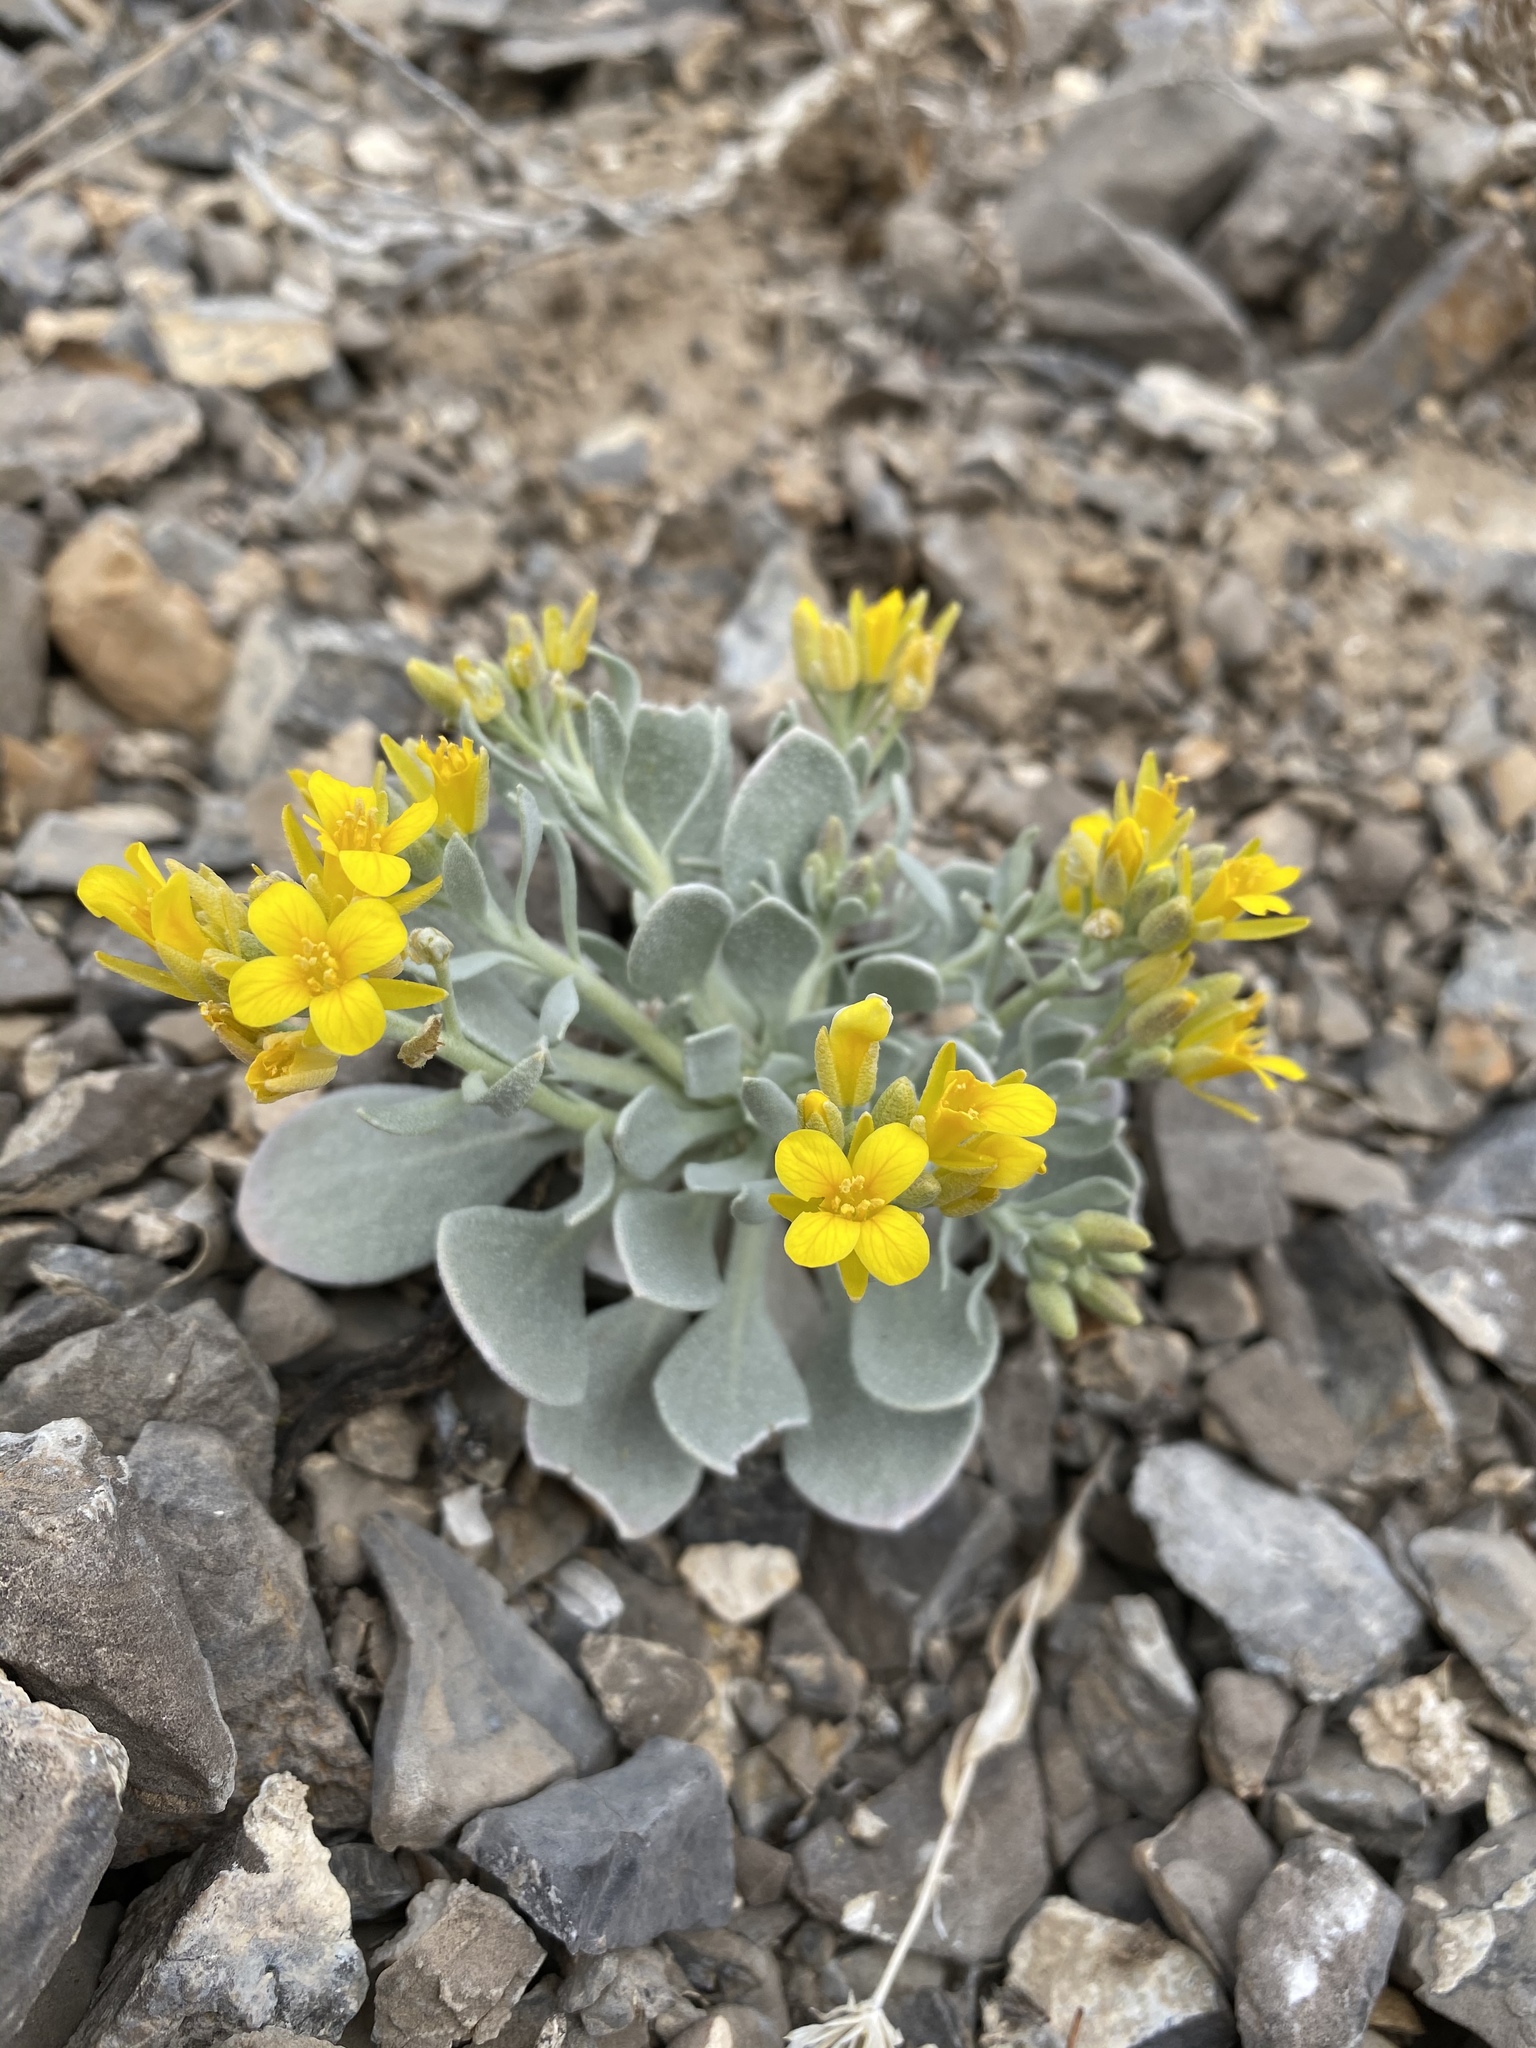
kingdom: Plantae
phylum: Tracheophyta
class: Magnoliopsida
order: Brassicales
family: Brassicaceae
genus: Physaria
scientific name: Physaria chambersii
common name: Chamber's twinpod
